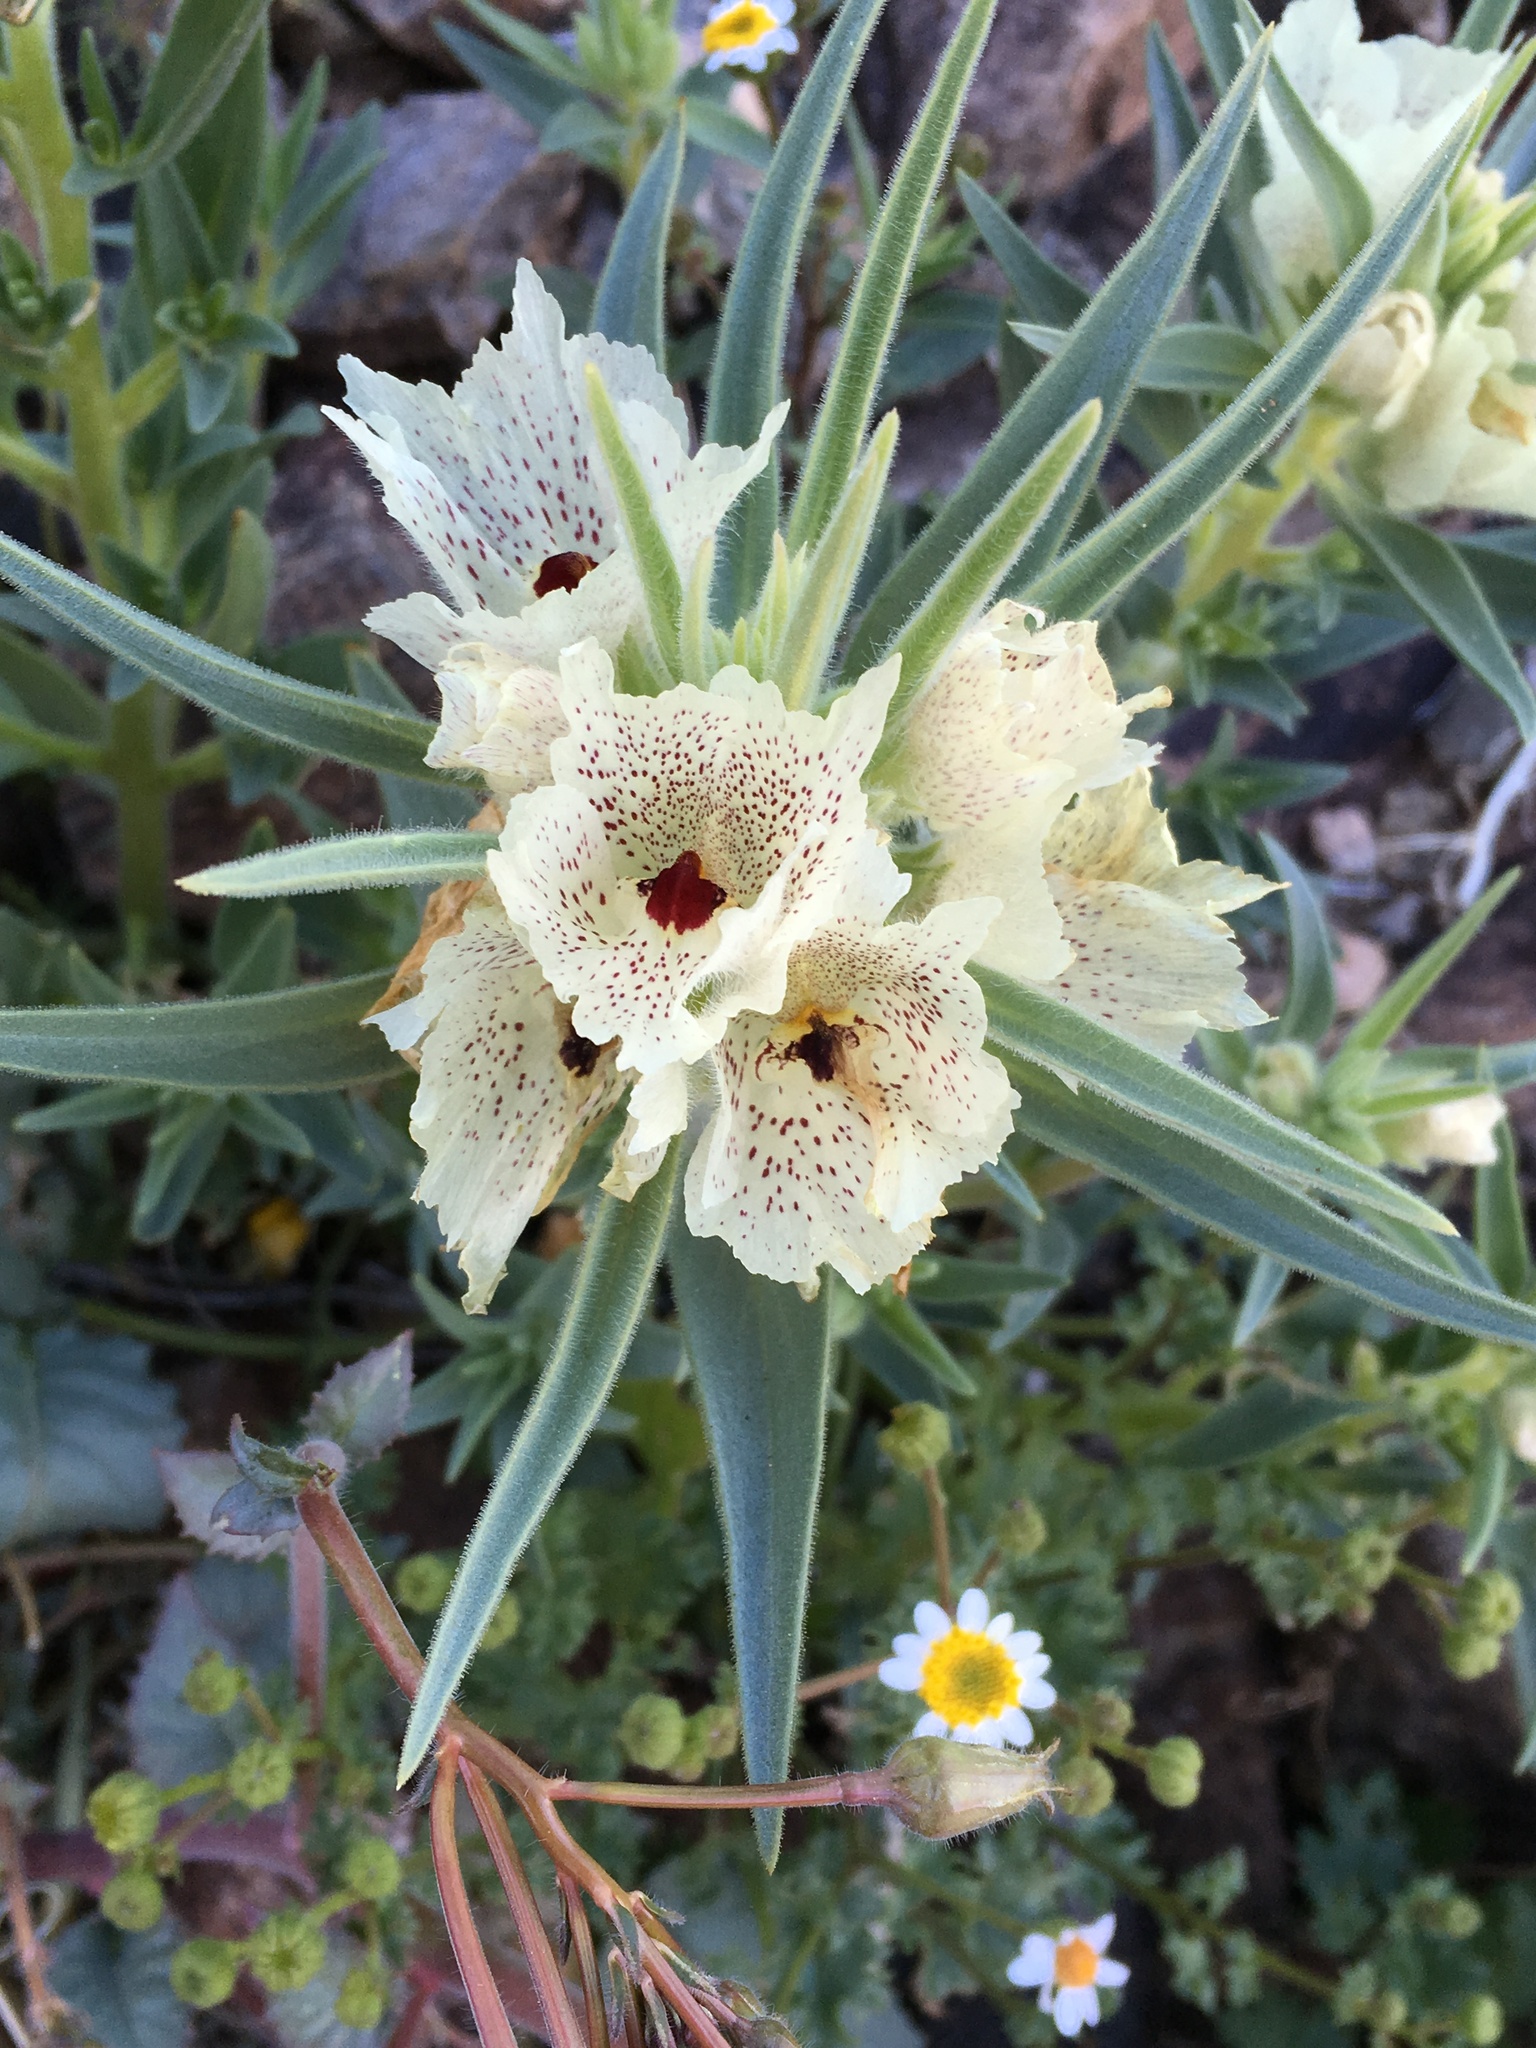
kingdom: Plantae
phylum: Tracheophyta
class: Magnoliopsida
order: Lamiales
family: Plantaginaceae
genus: Mohavea
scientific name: Mohavea confertiflora
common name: Ghost flower
